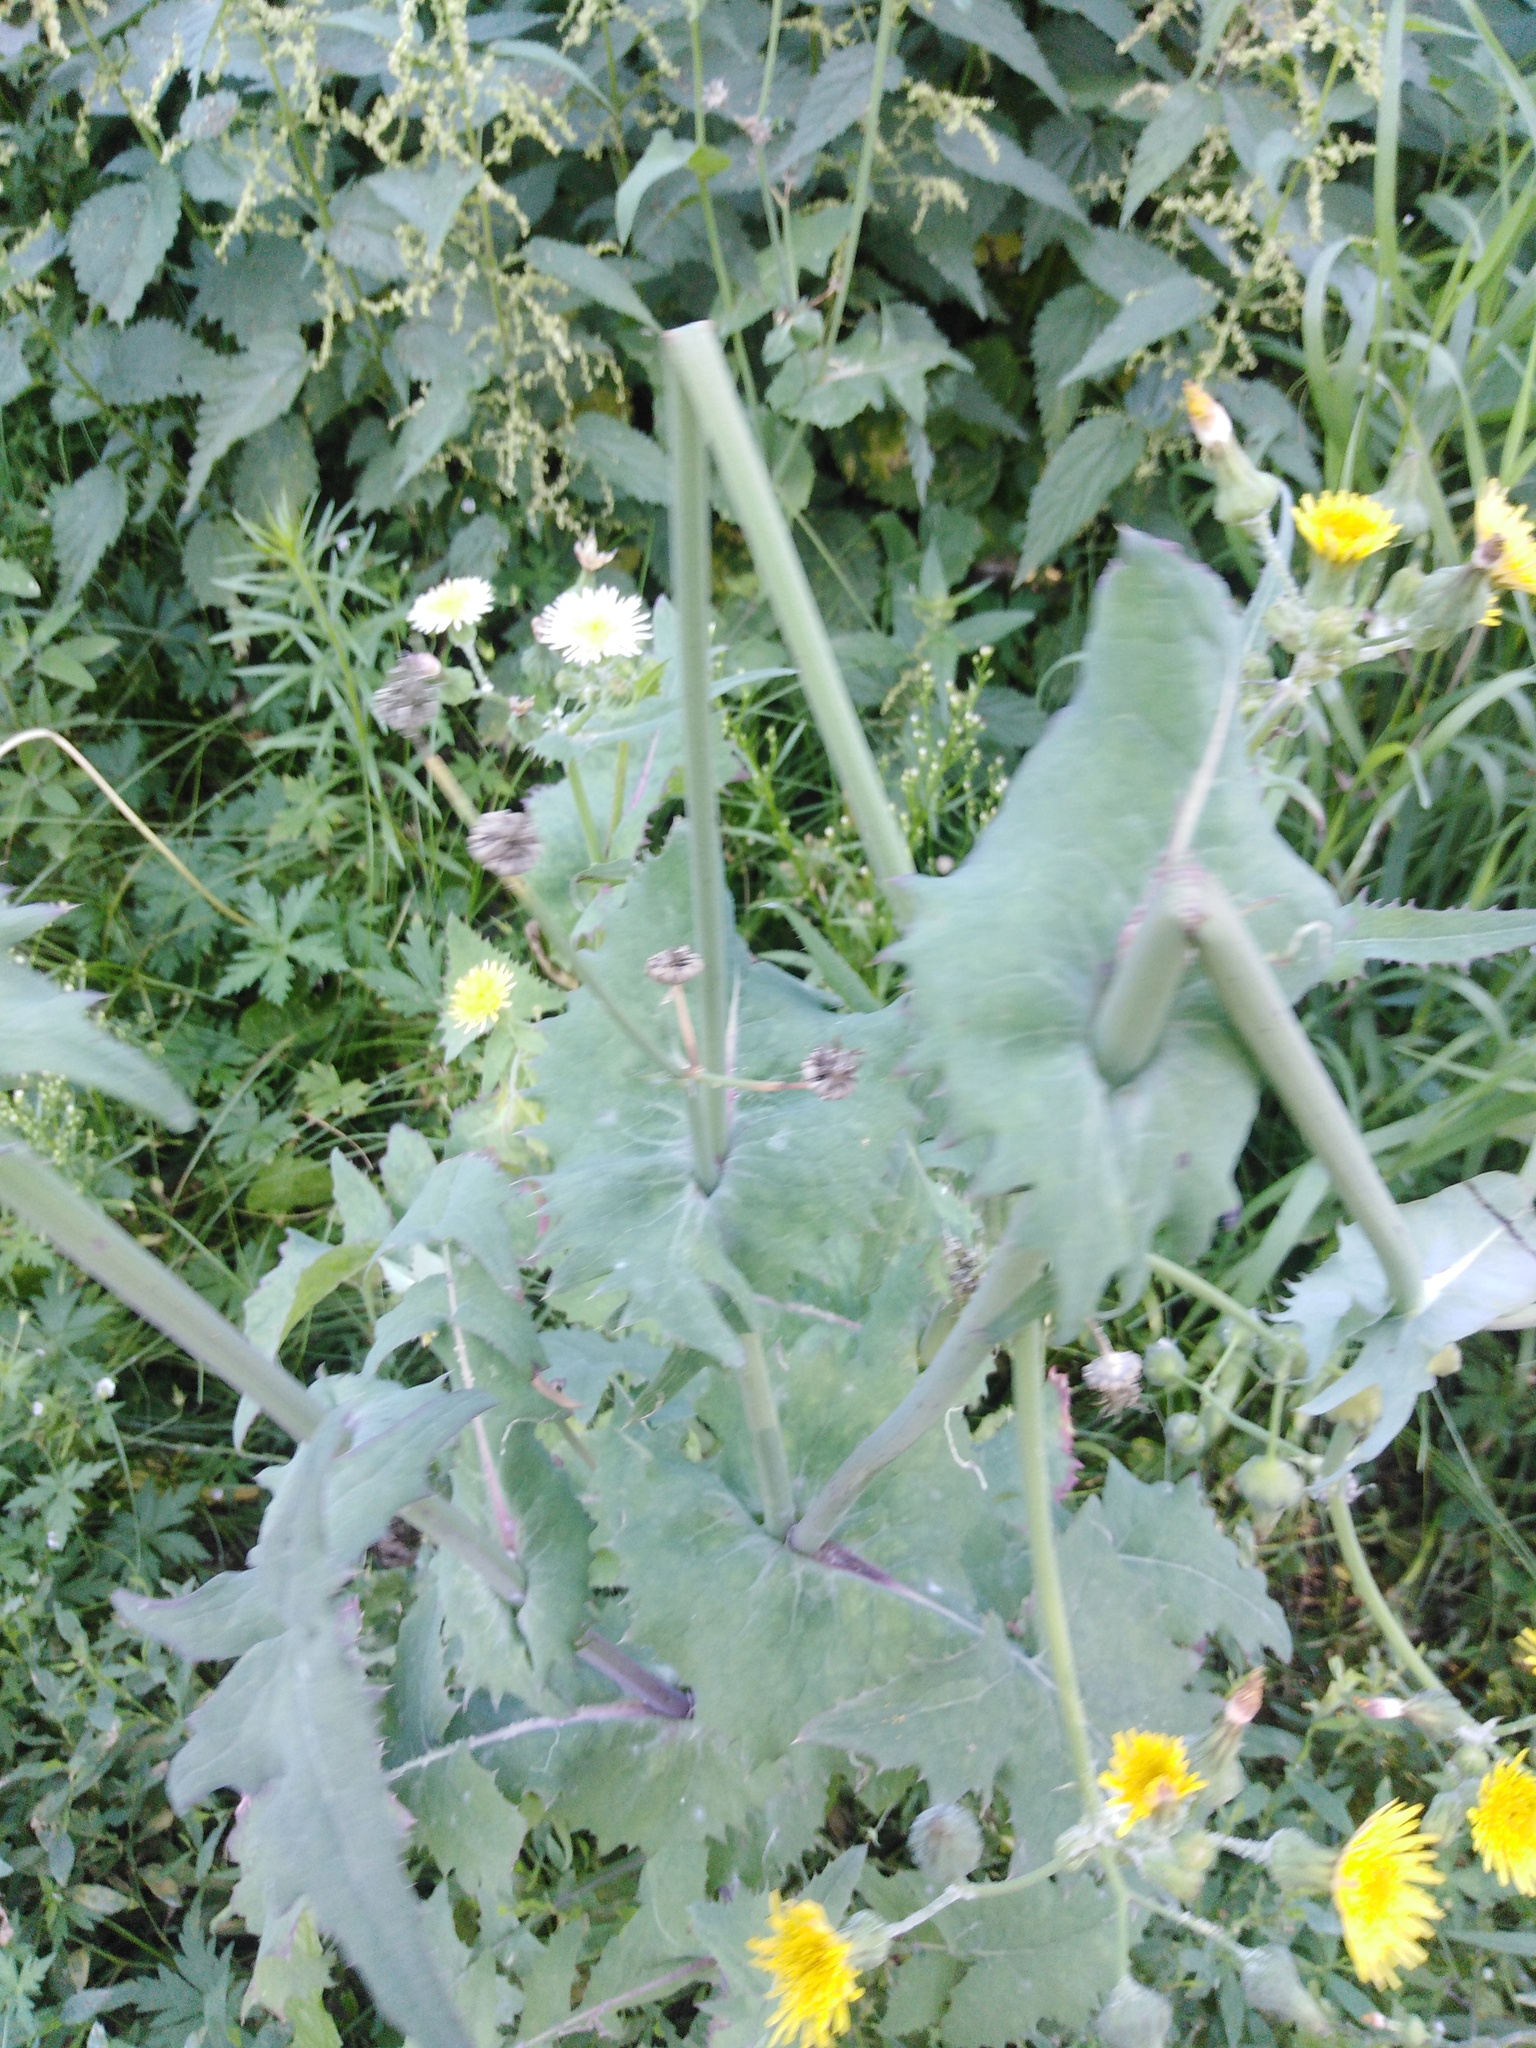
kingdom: Plantae
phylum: Tracheophyta
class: Magnoliopsida
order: Asterales
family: Asteraceae
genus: Sonchus
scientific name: Sonchus oleraceus
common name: Common sowthistle
